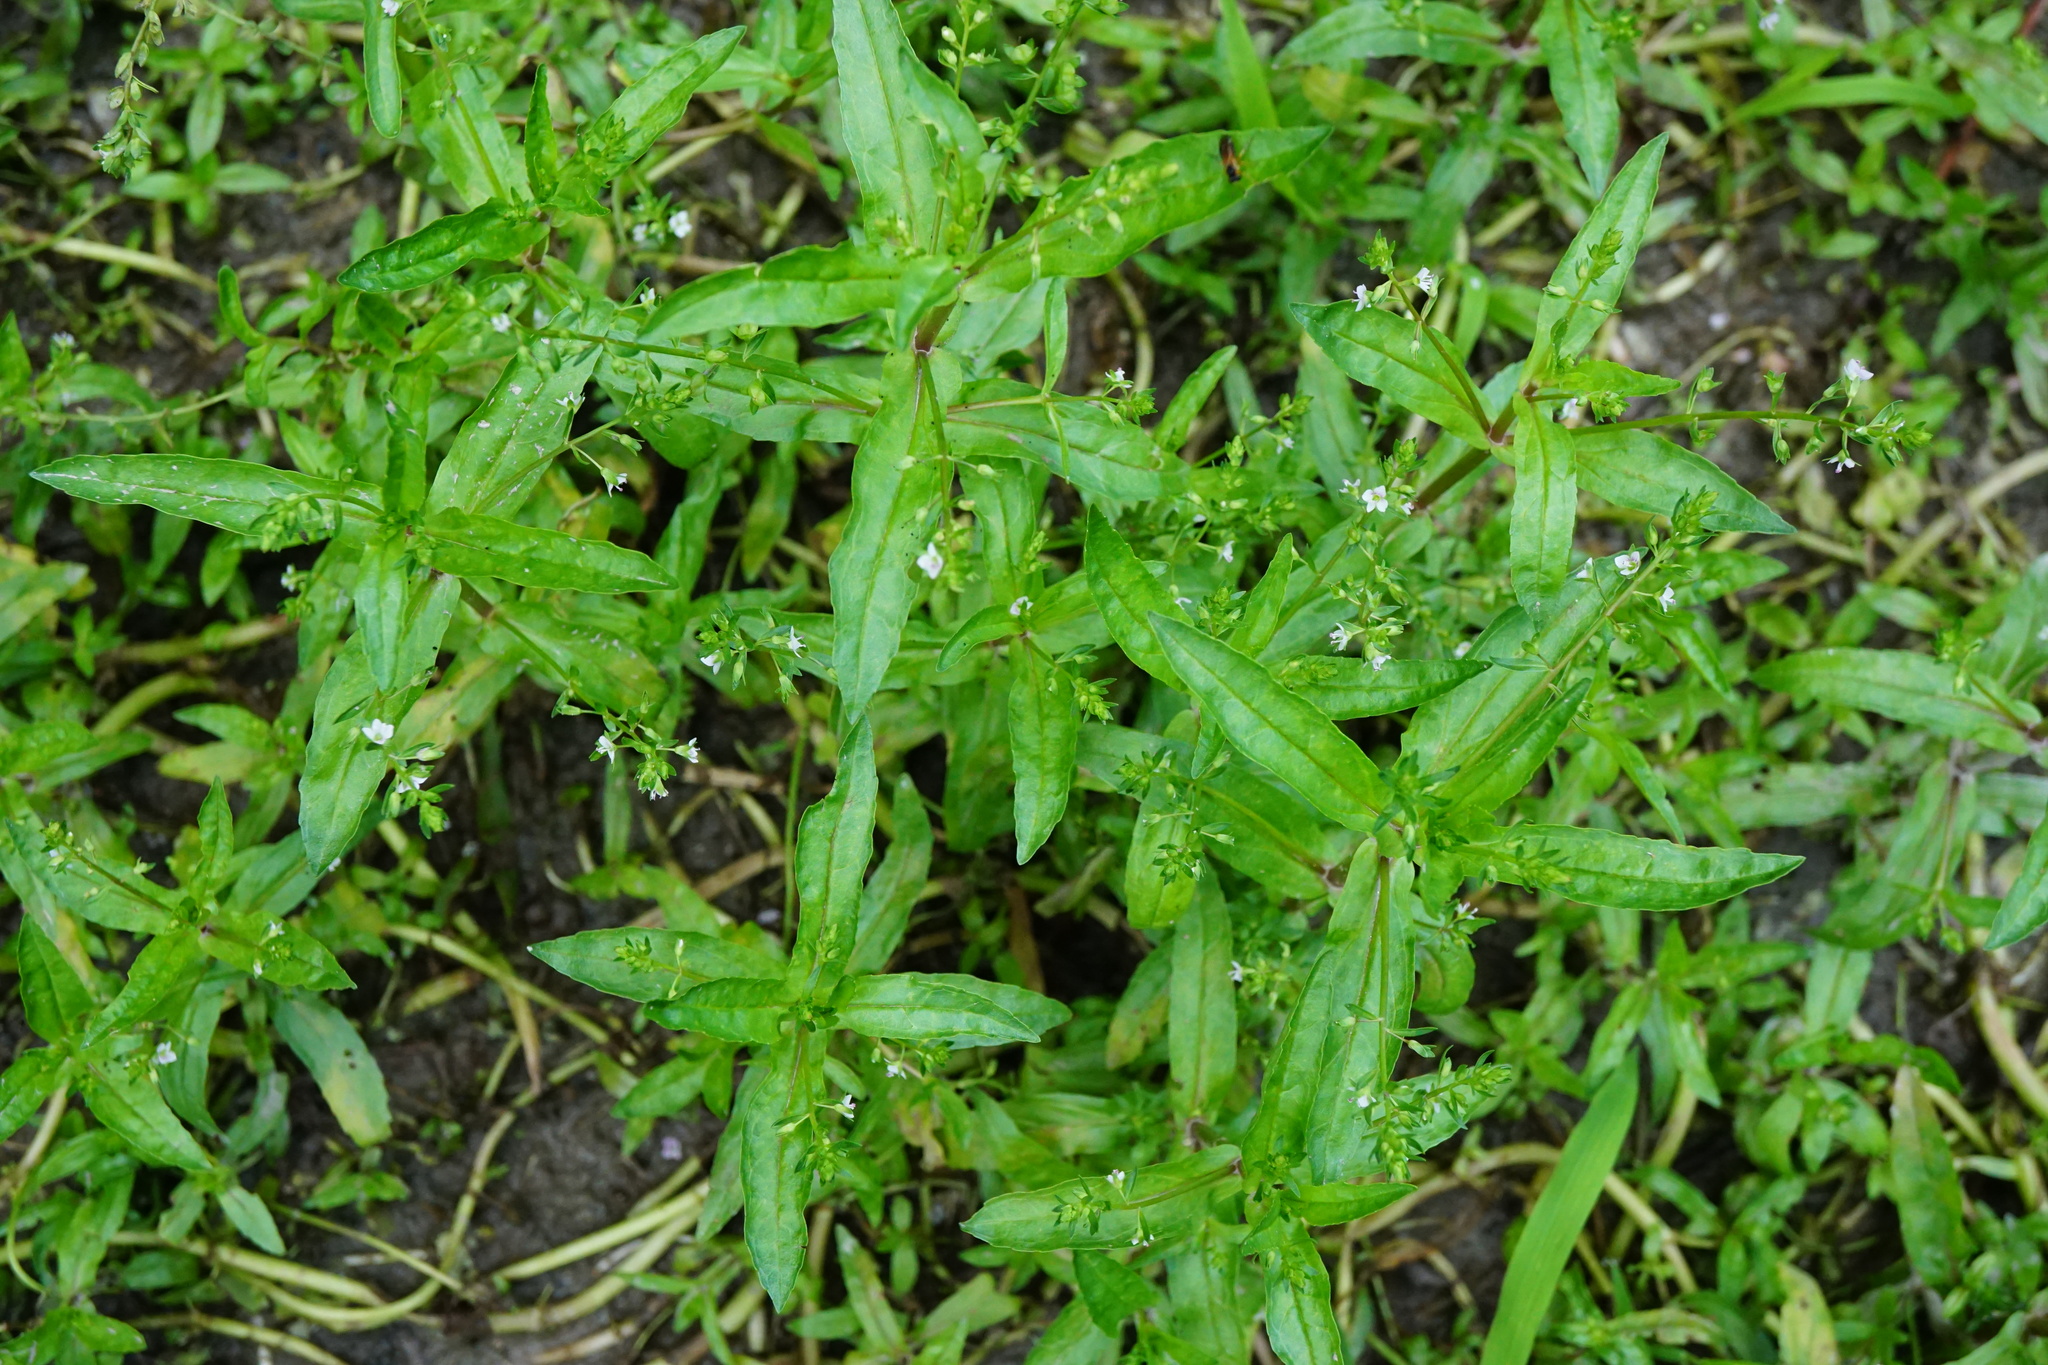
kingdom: Plantae
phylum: Tracheophyta
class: Magnoliopsida
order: Lamiales
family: Plantaginaceae
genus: Veronica
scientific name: Veronica catenata
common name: Pink water-speedwell
